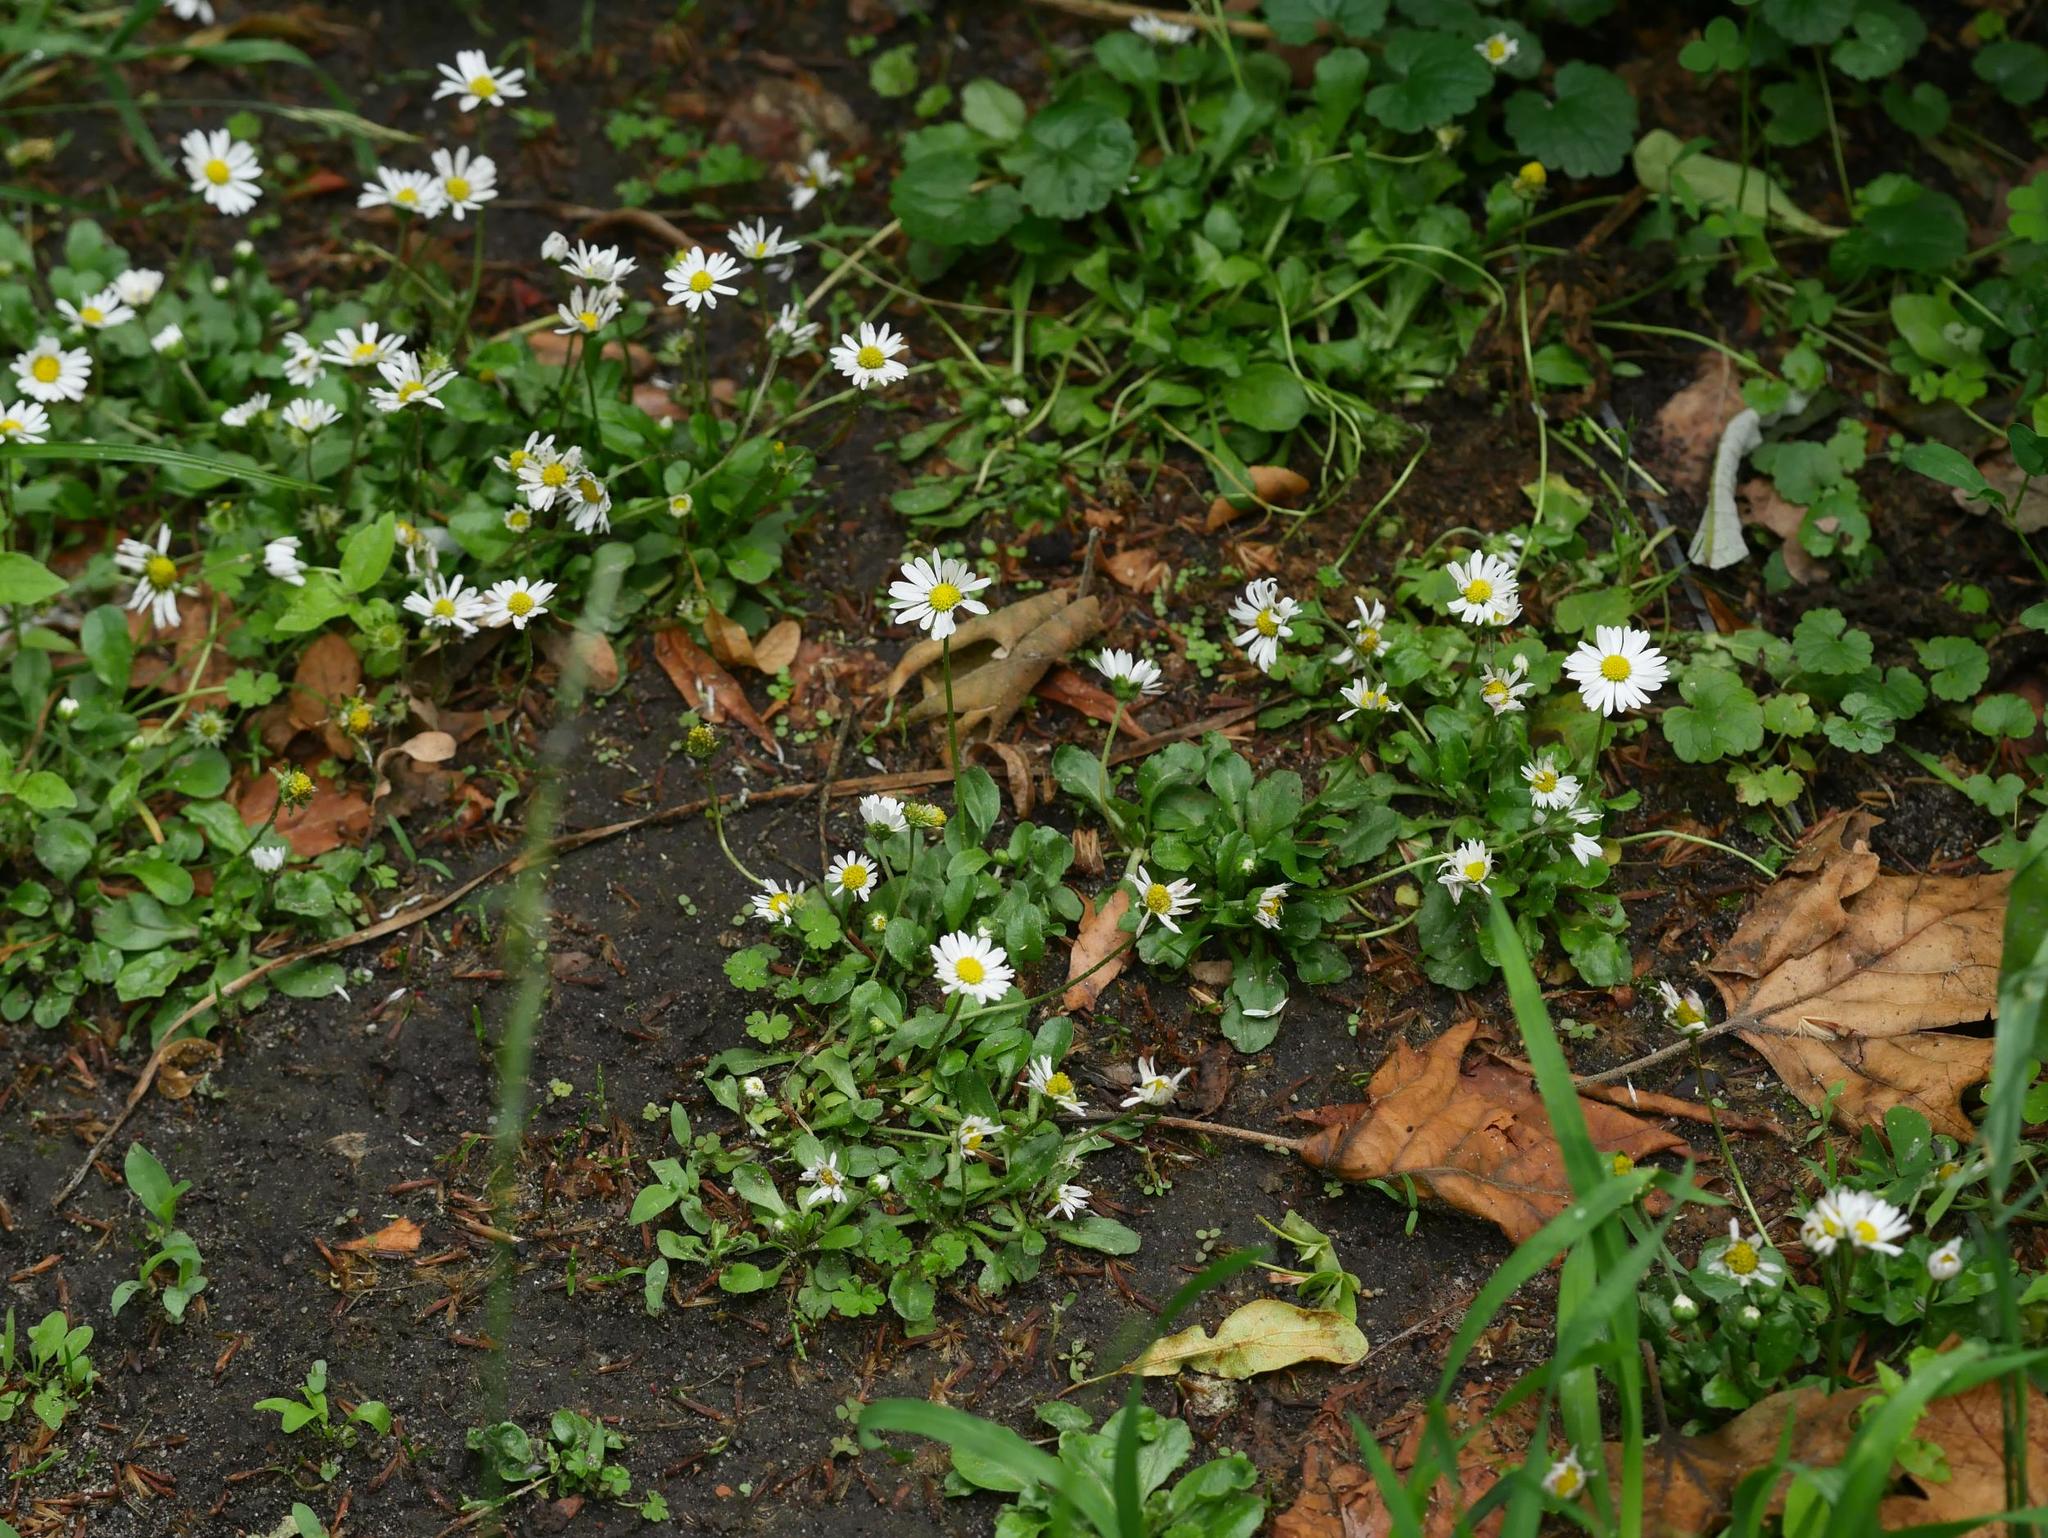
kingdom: Plantae
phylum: Tracheophyta
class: Magnoliopsida
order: Asterales
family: Asteraceae
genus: Bellis
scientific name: Bellis perennis
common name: Lawndaisy
